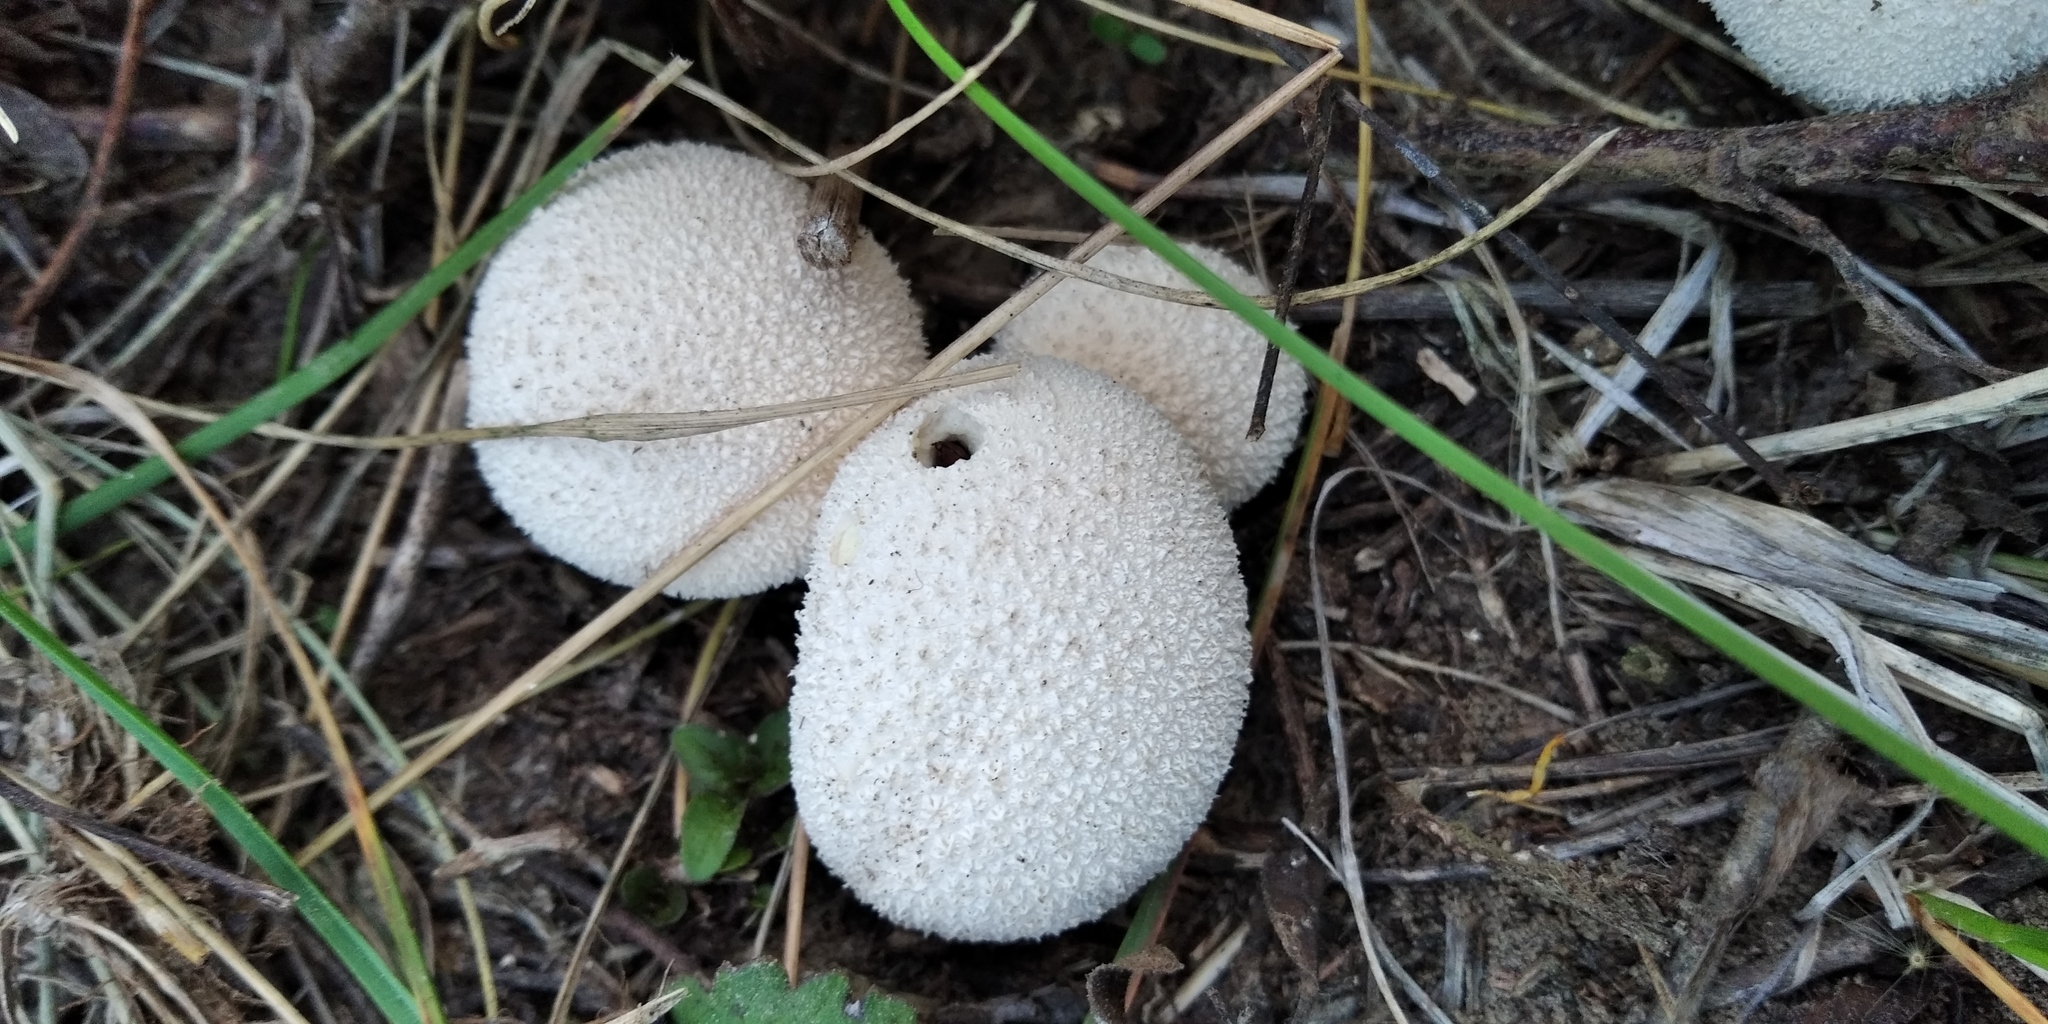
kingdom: Fungi
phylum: Basidiomycota
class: Agaricomycetes
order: Agaricales
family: Lycoperdaceae
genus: Lycoperdon
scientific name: Lycoperdon perlatum
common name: Common puffball
